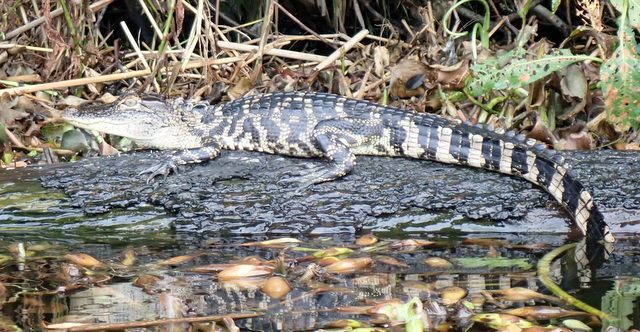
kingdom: Animalia
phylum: Chordata
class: Crocodylia
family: Alligatoridae
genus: Alligator
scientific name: Alligator mississippiensis
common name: American alligator
